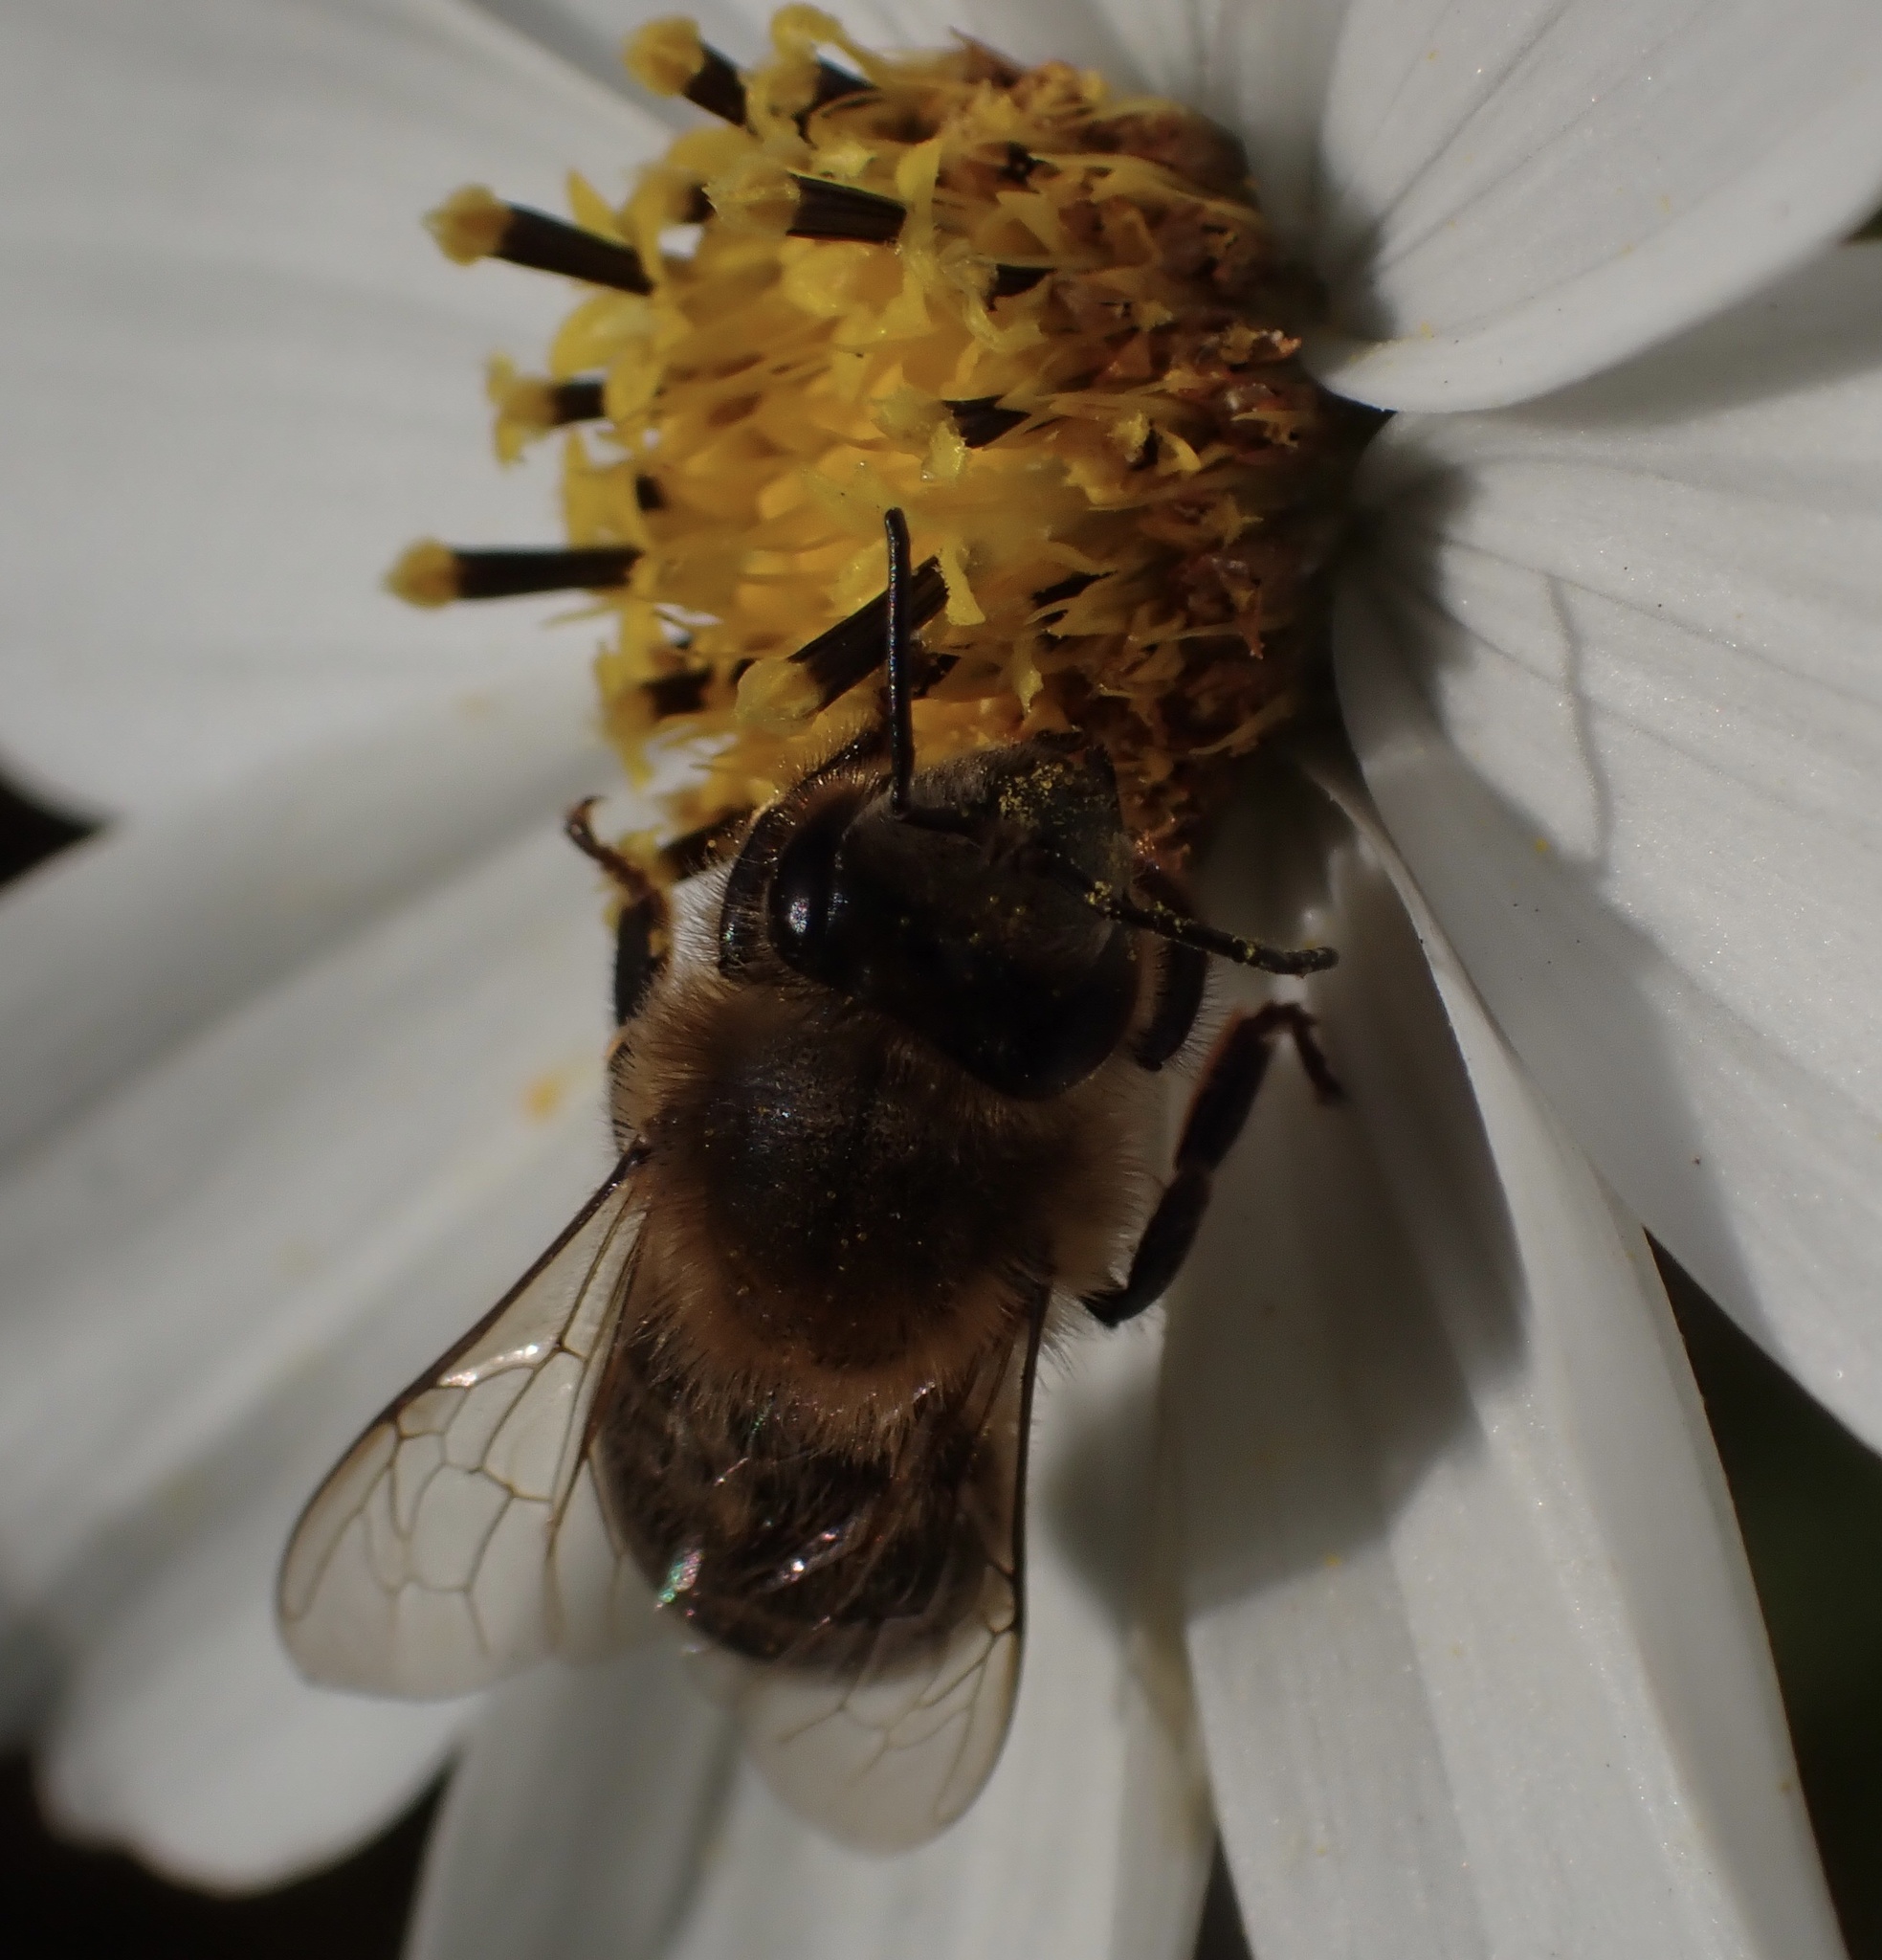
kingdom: Animalia
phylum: Arthropoda
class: Insecta
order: Hymenoptera
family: Apidae
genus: Apis
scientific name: Apis mellifera
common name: Honey bee
